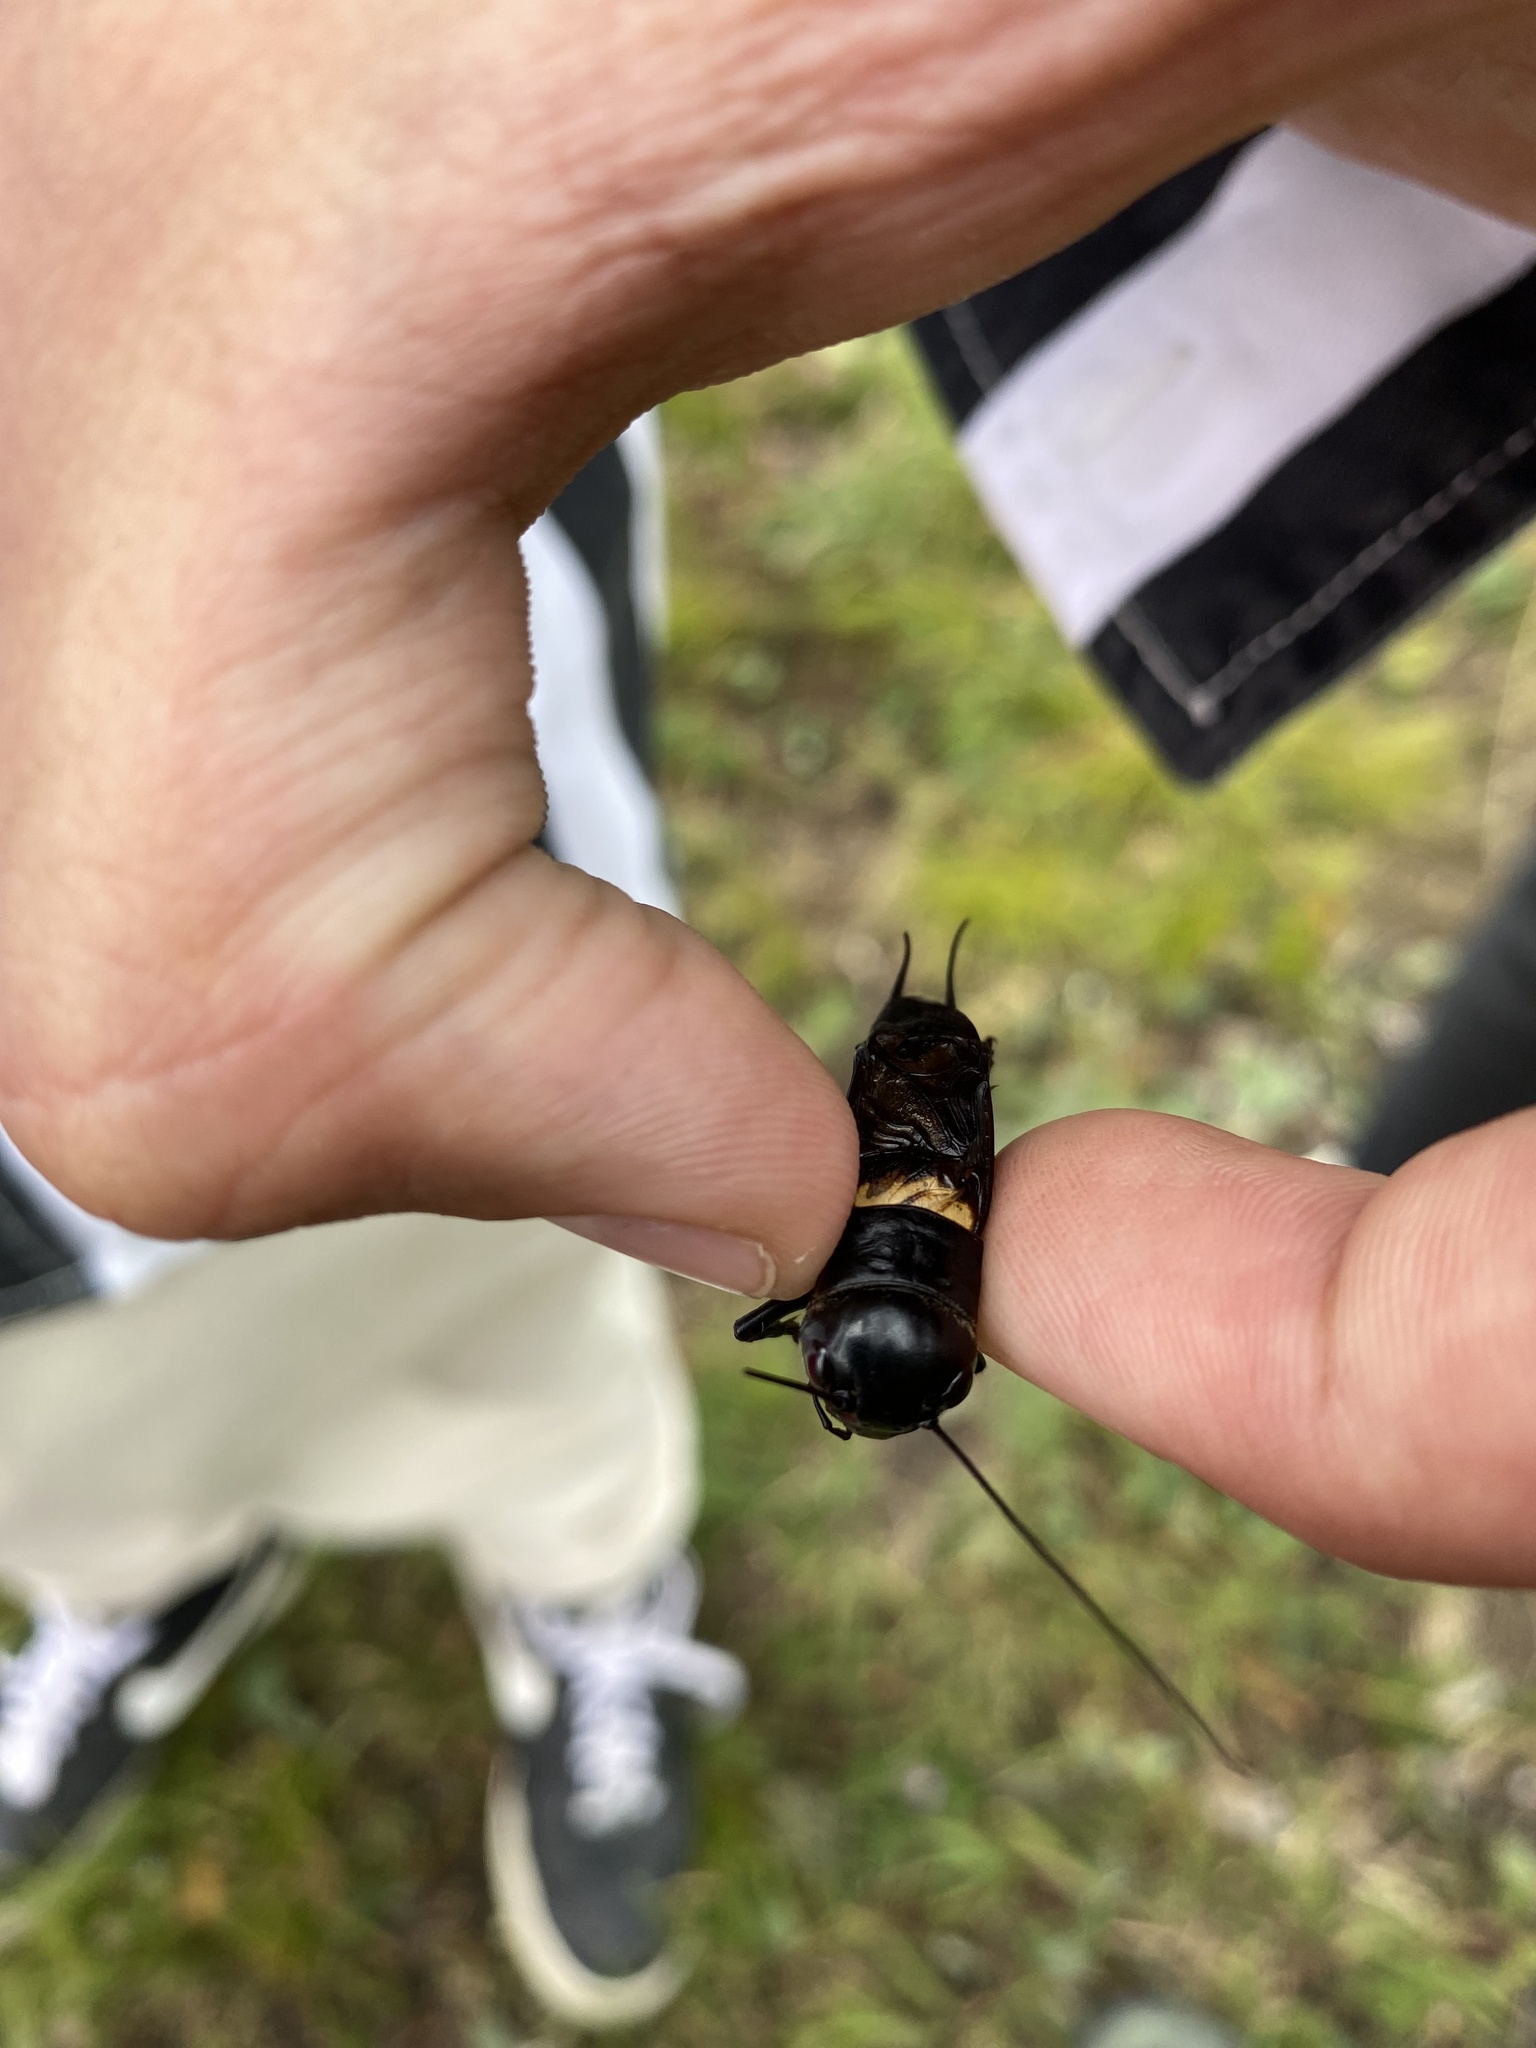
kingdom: Animalia
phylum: Arthropoda
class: Insecta
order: Orthoptera
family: Gryllidae
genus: Gryllus
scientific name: Gryllus campestris
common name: Field cricket
